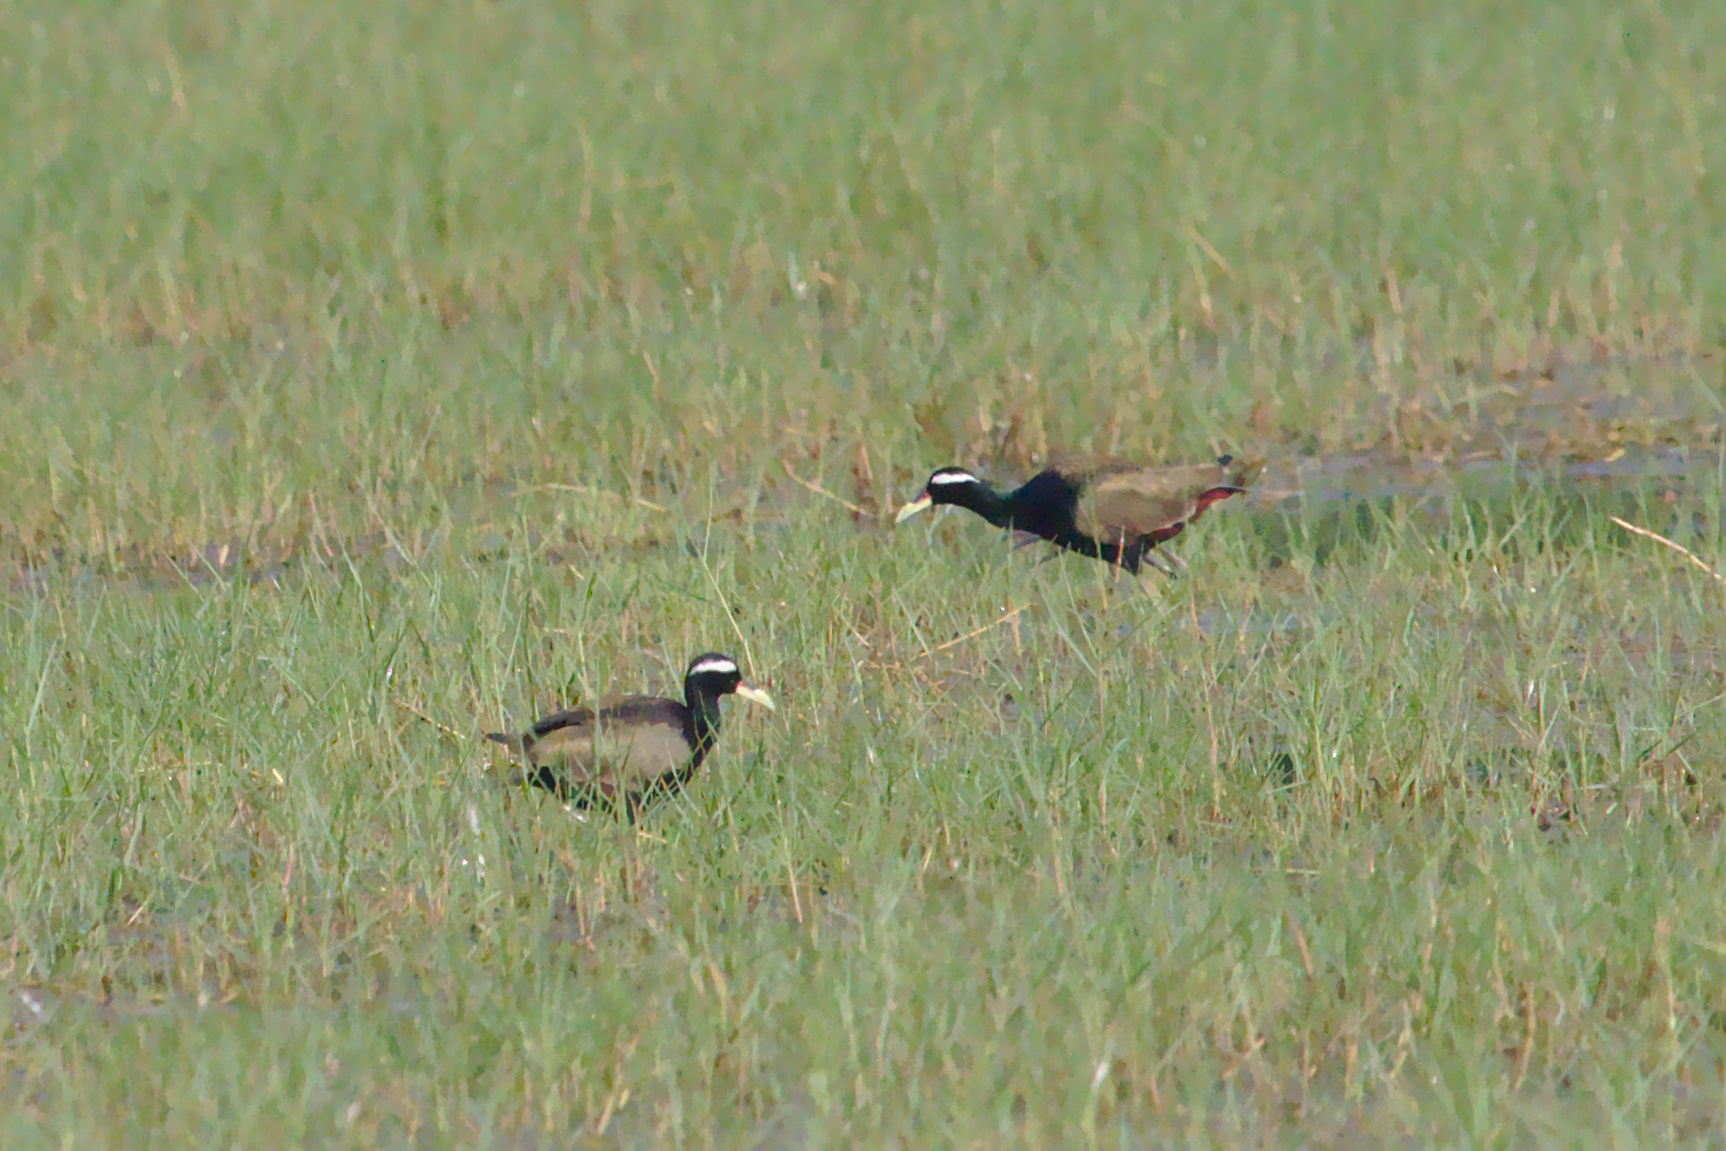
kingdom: Animalia
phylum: Chordata
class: Aves
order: Charadriiformes
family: Jacanidae
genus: Metopidius
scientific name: Metopidius indicus
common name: Bronze-winged jacana
